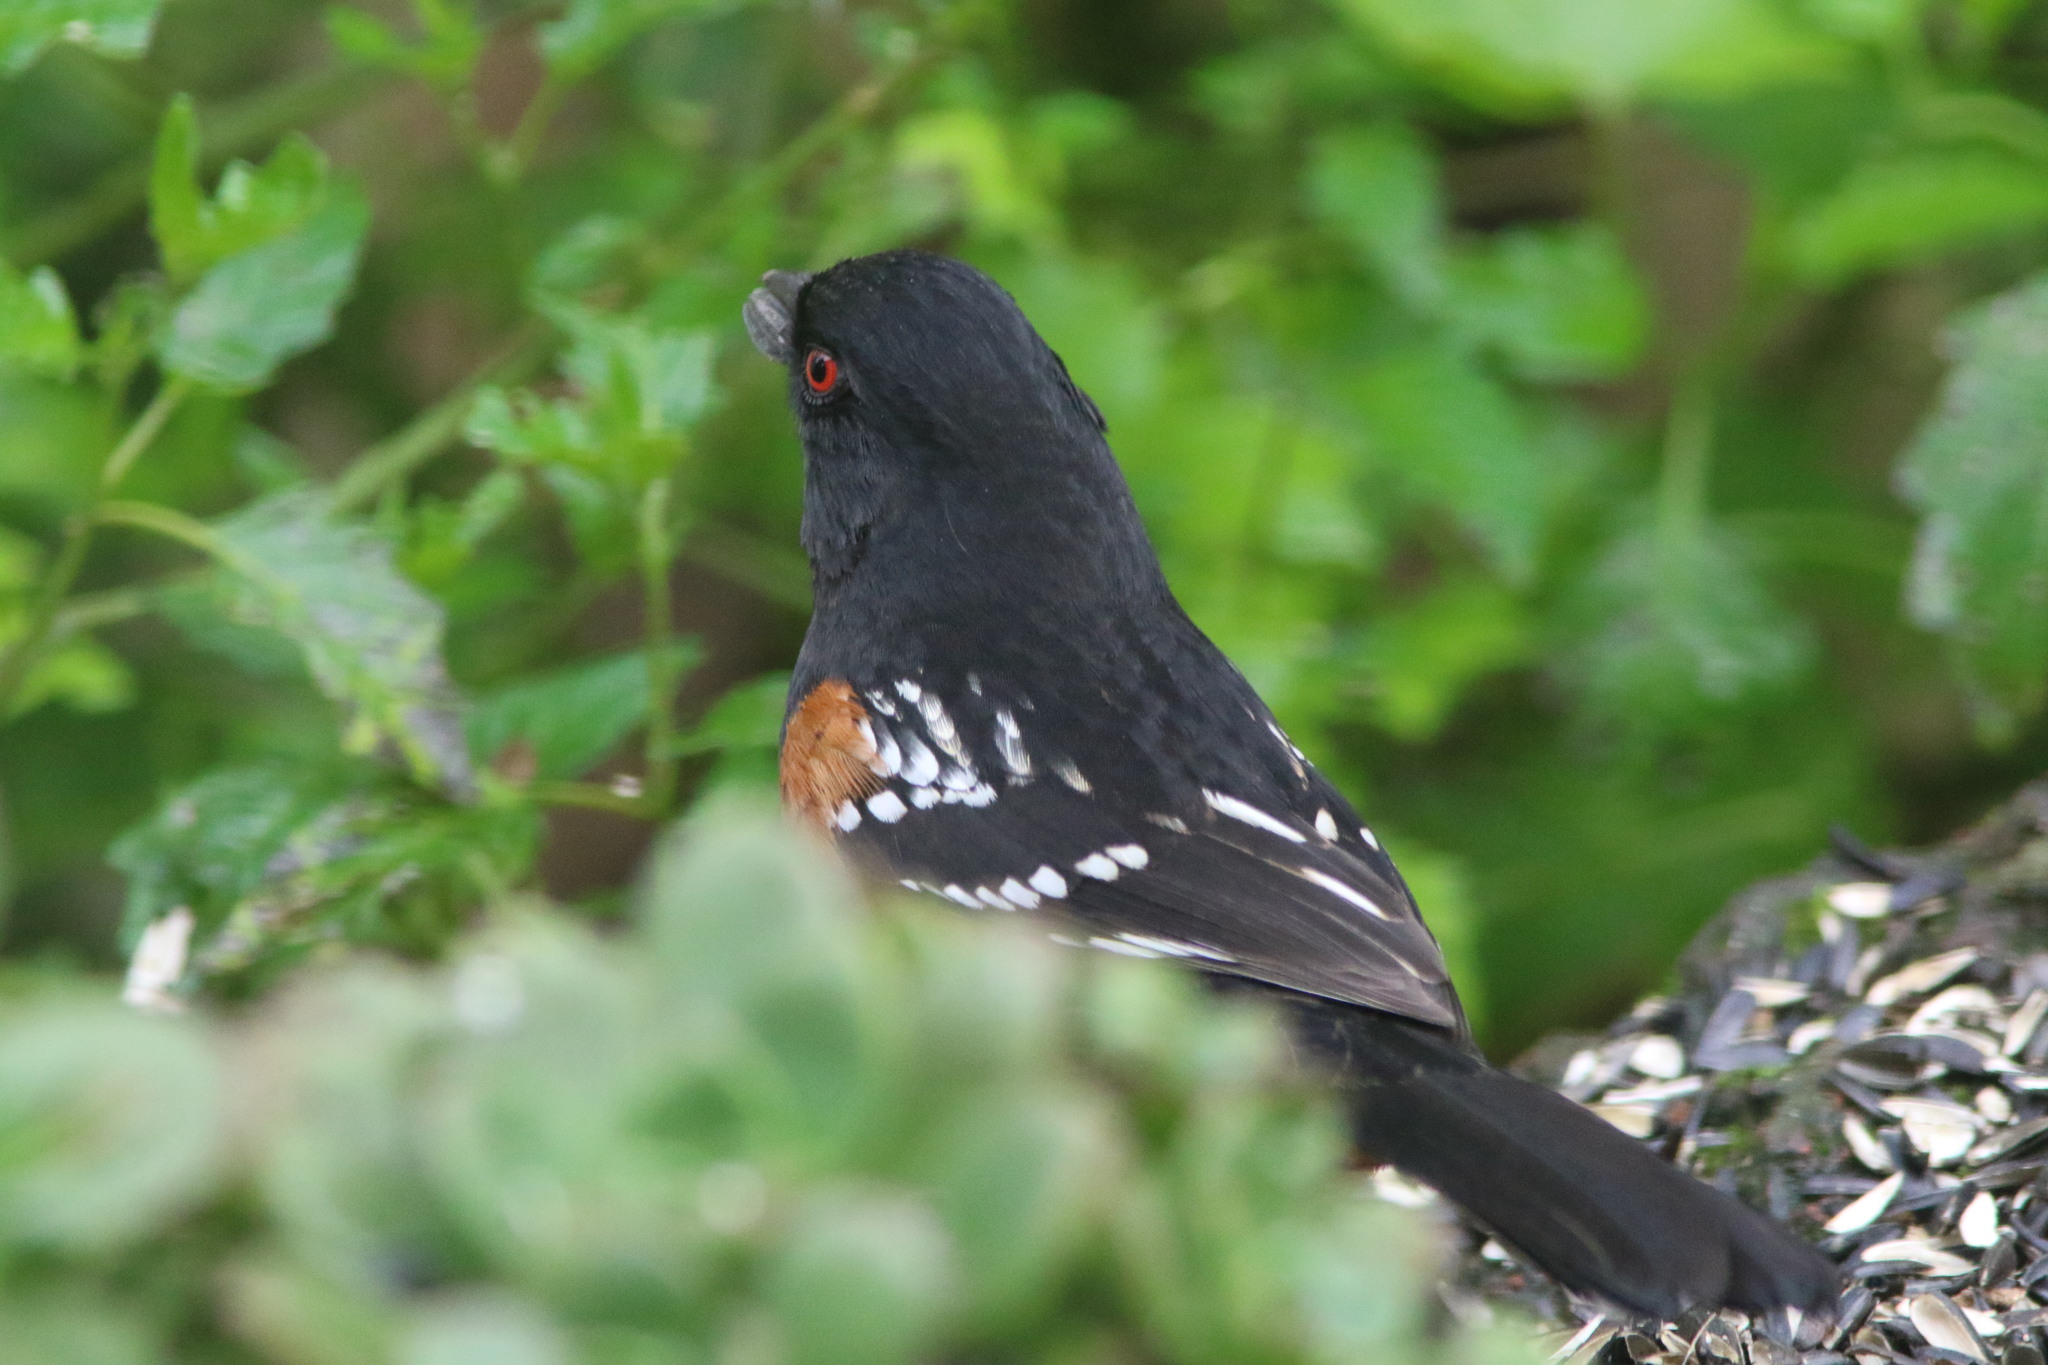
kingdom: Animalia
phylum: Chordata
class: Aves
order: Passeriformes
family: Passerellidae
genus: Pipilo
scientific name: Pipilo maculatus
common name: Spotted towhee
